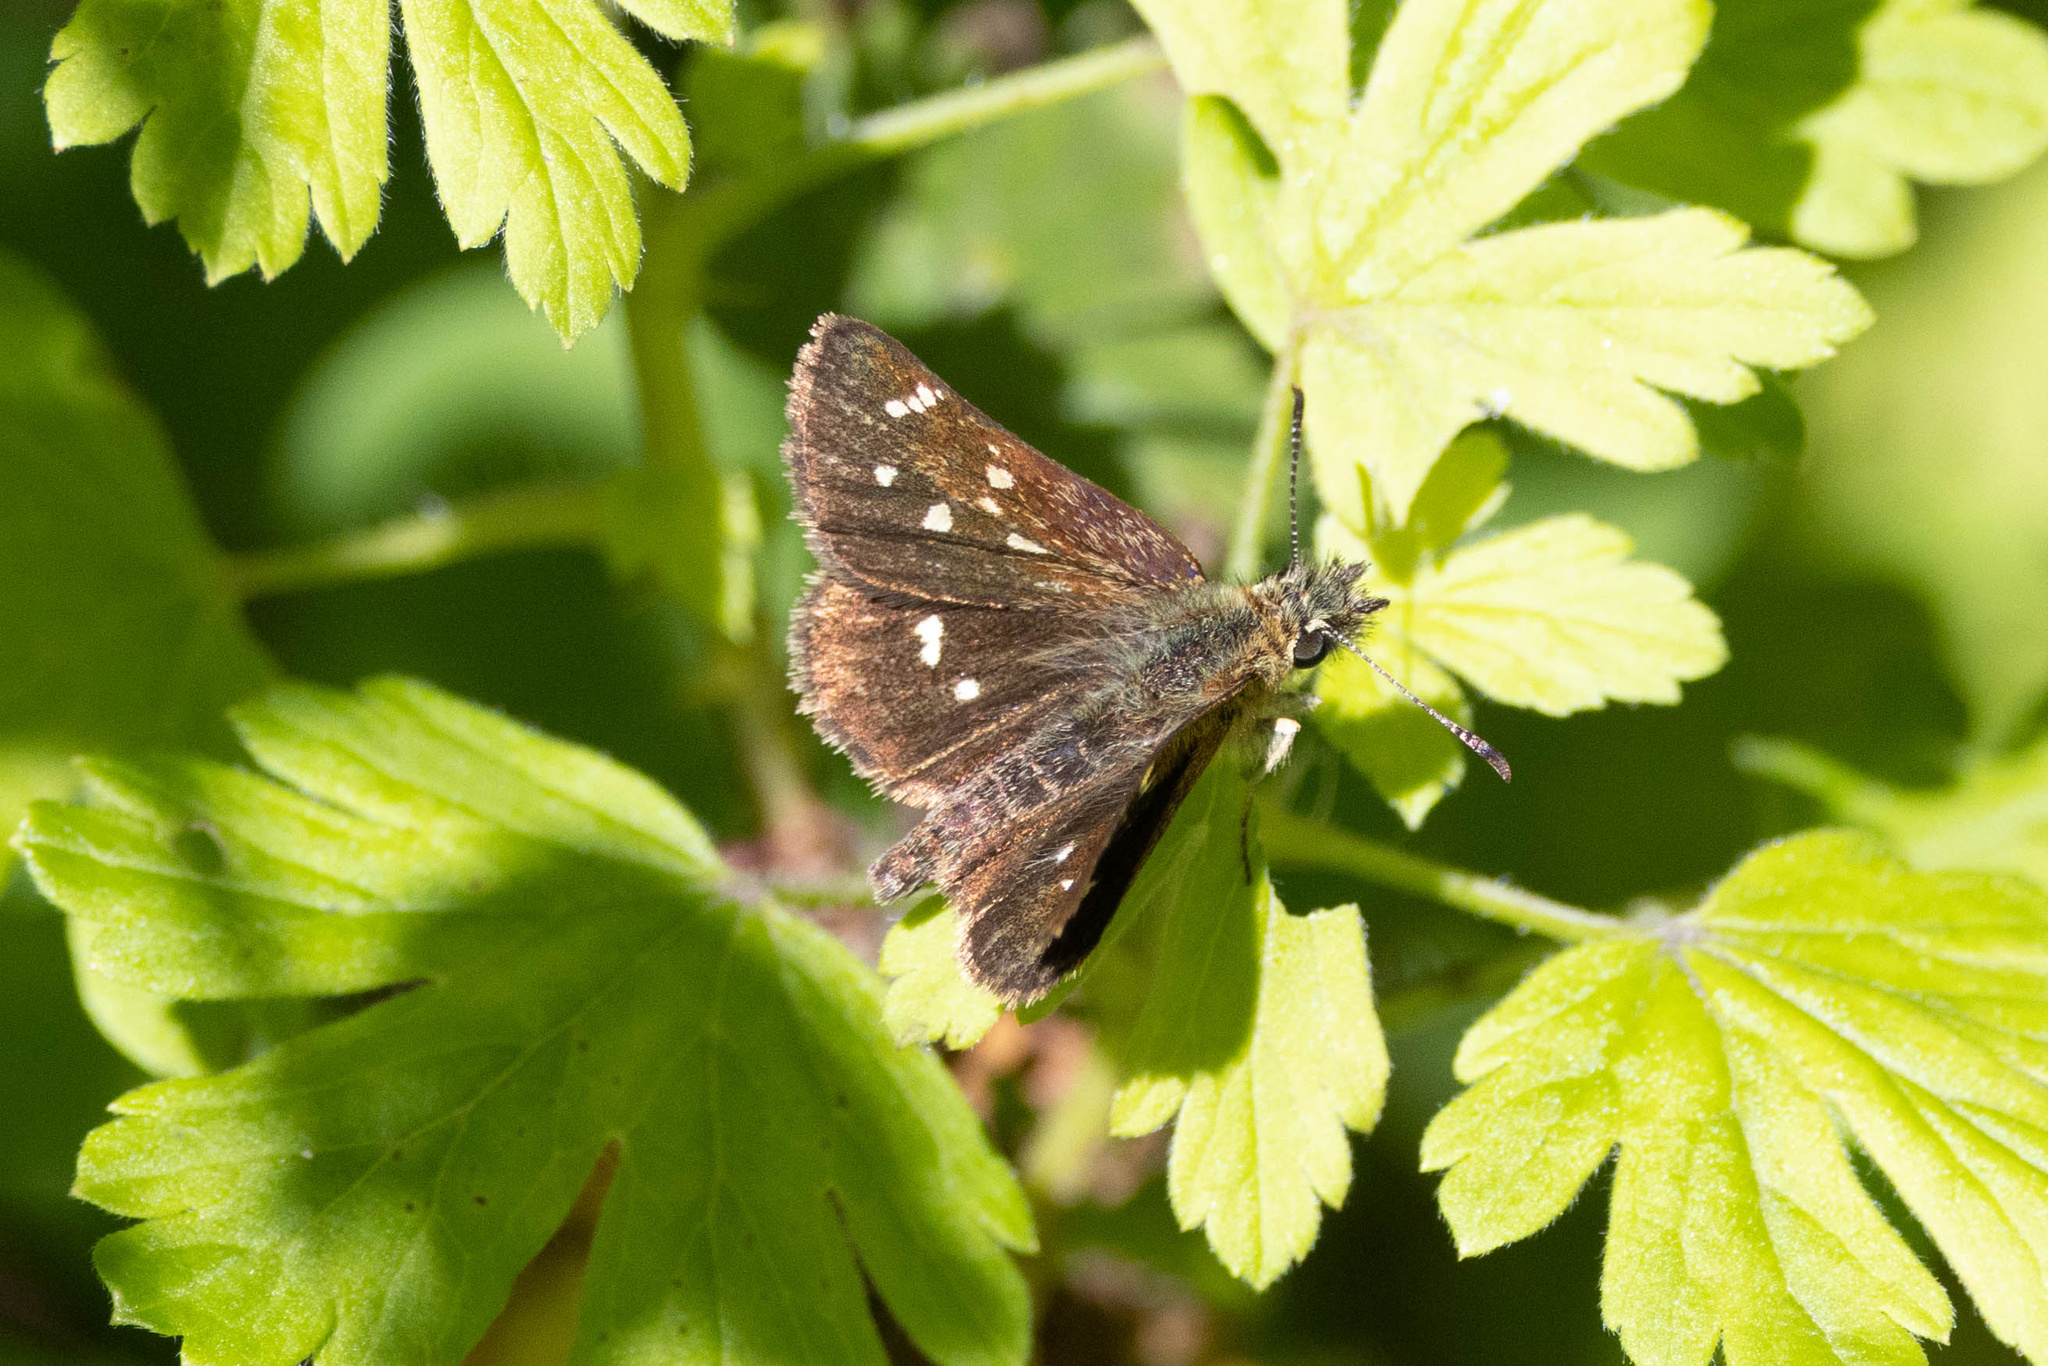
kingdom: Animalia
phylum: Arthropoda
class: Insecta
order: Lepidoptera
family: Hesperiidae
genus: Piruna
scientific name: Piruna polingii
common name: Four-spotted skipperling
